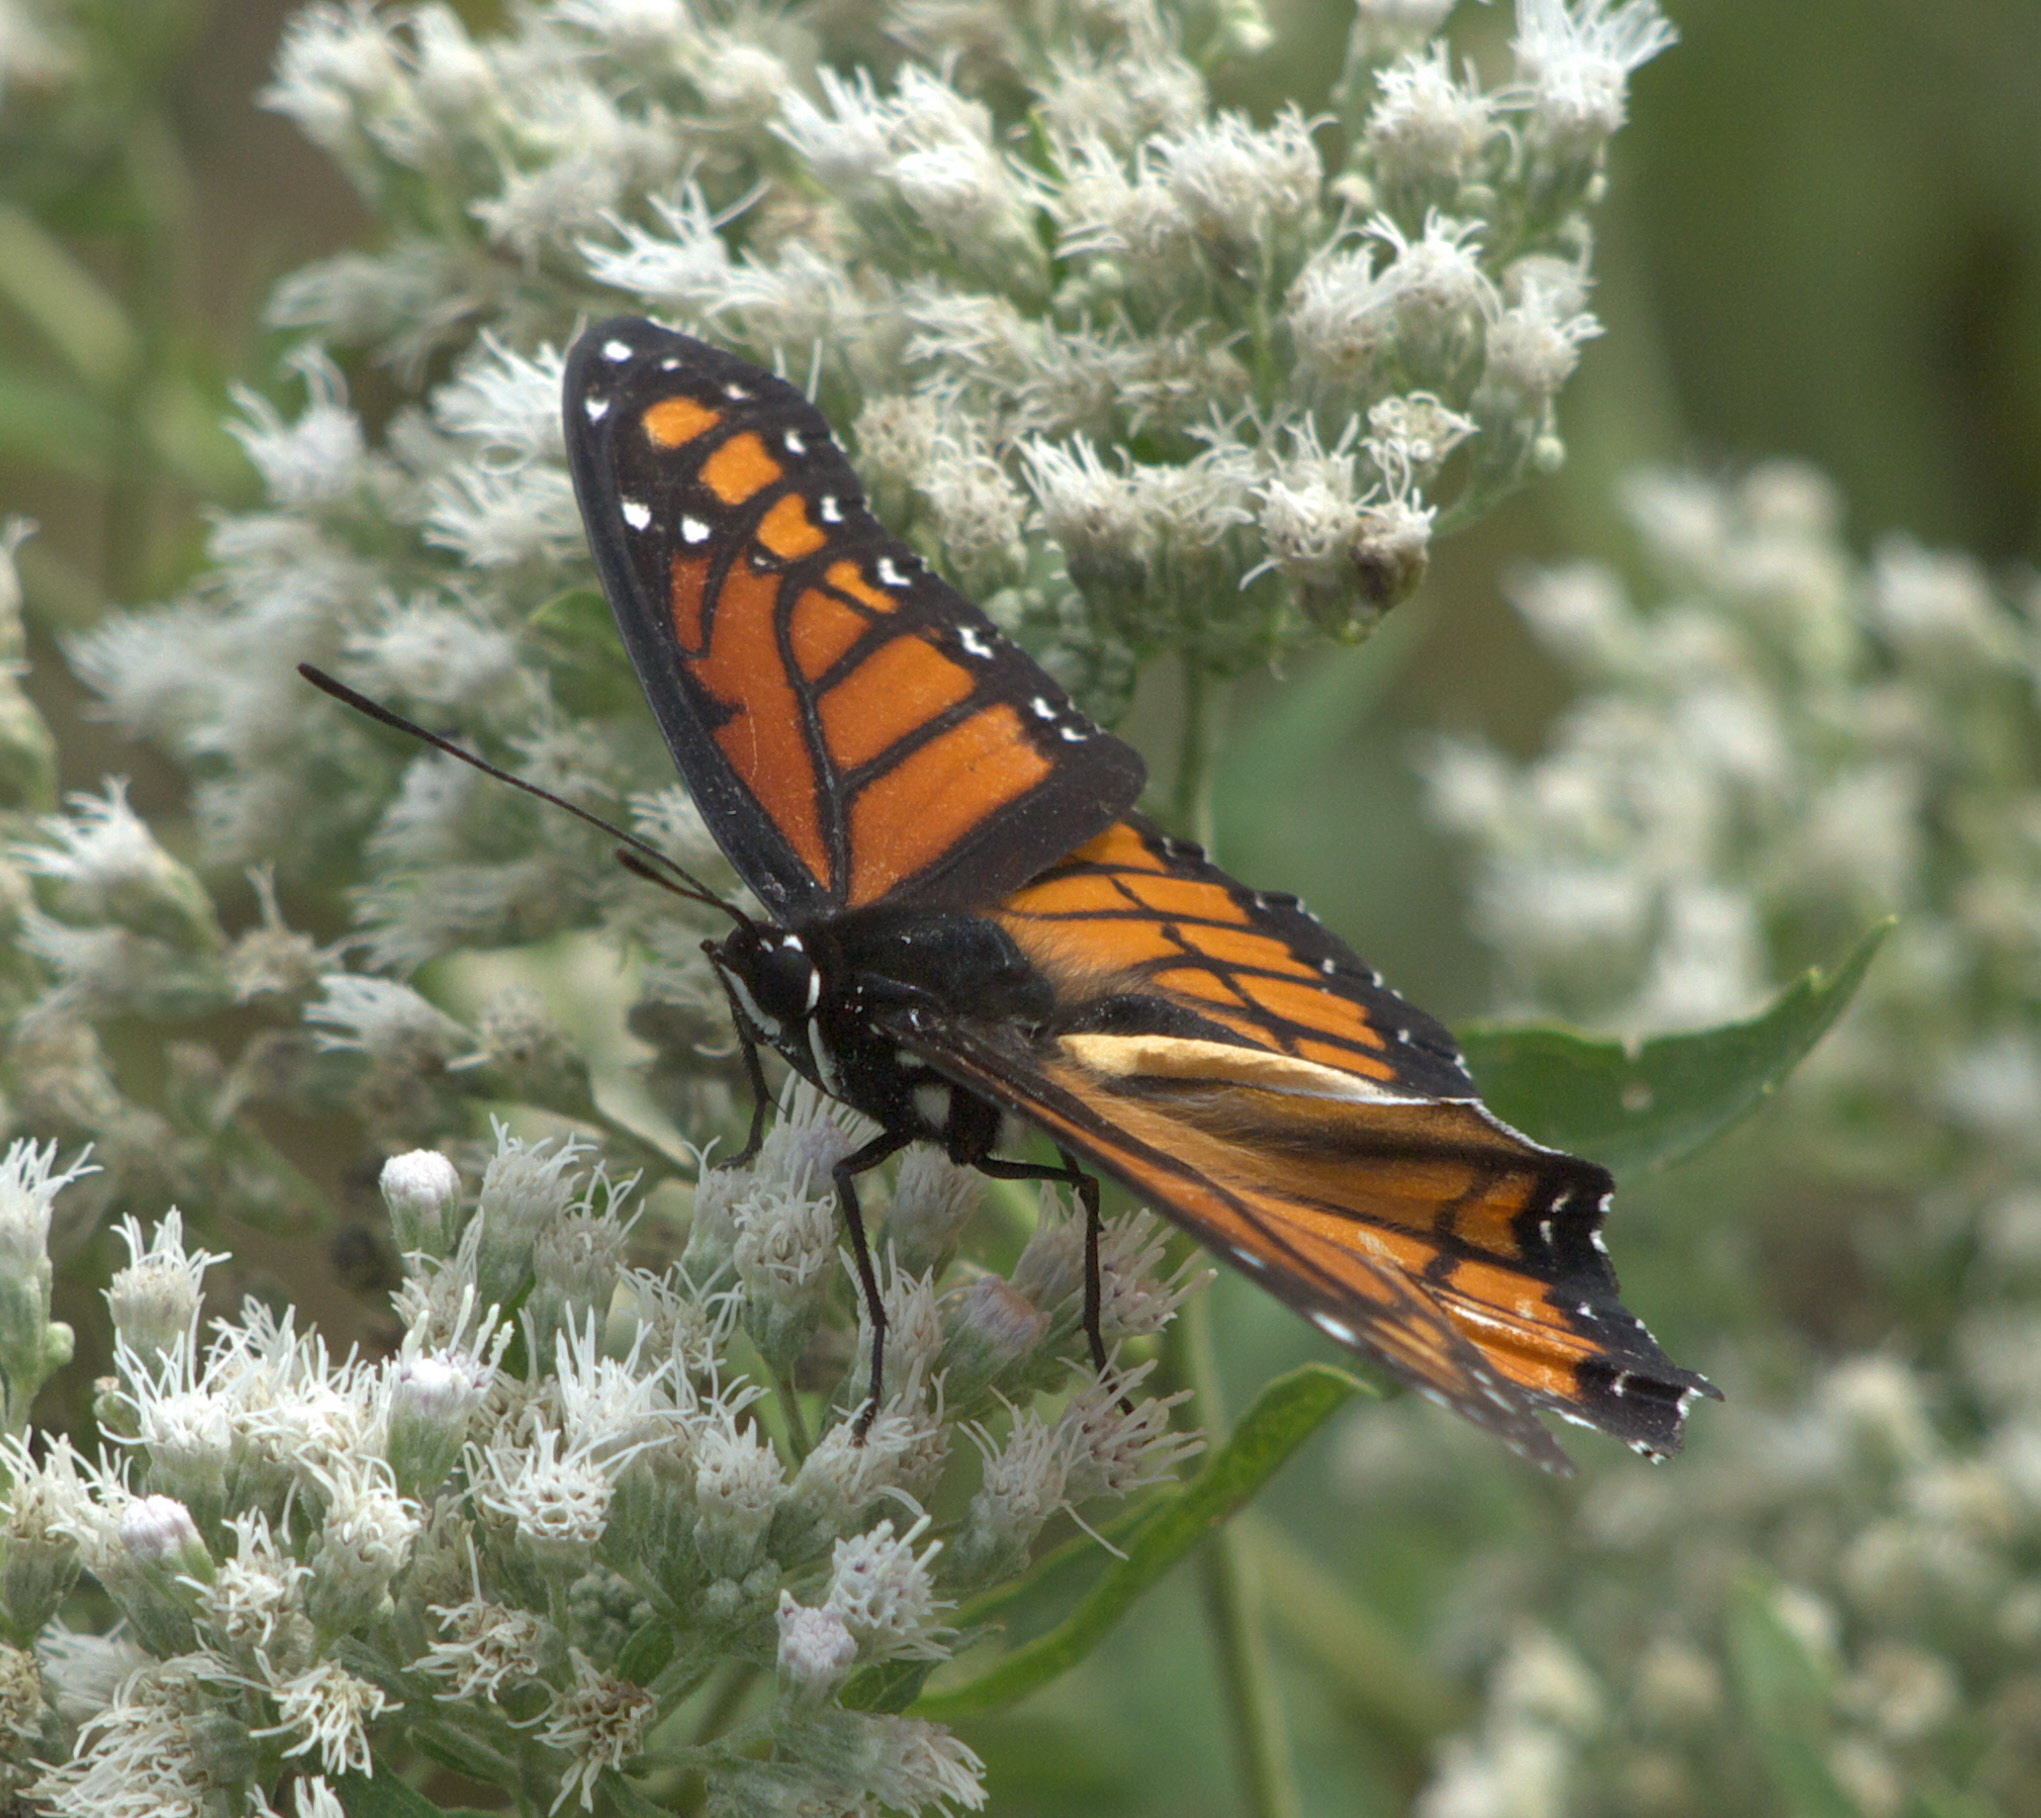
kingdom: Animalia
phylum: Arthropoda
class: Insecta
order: Lepidoptera
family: Nymphalidae
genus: Limenitis
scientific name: Limenitis archippus
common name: Viceroy
